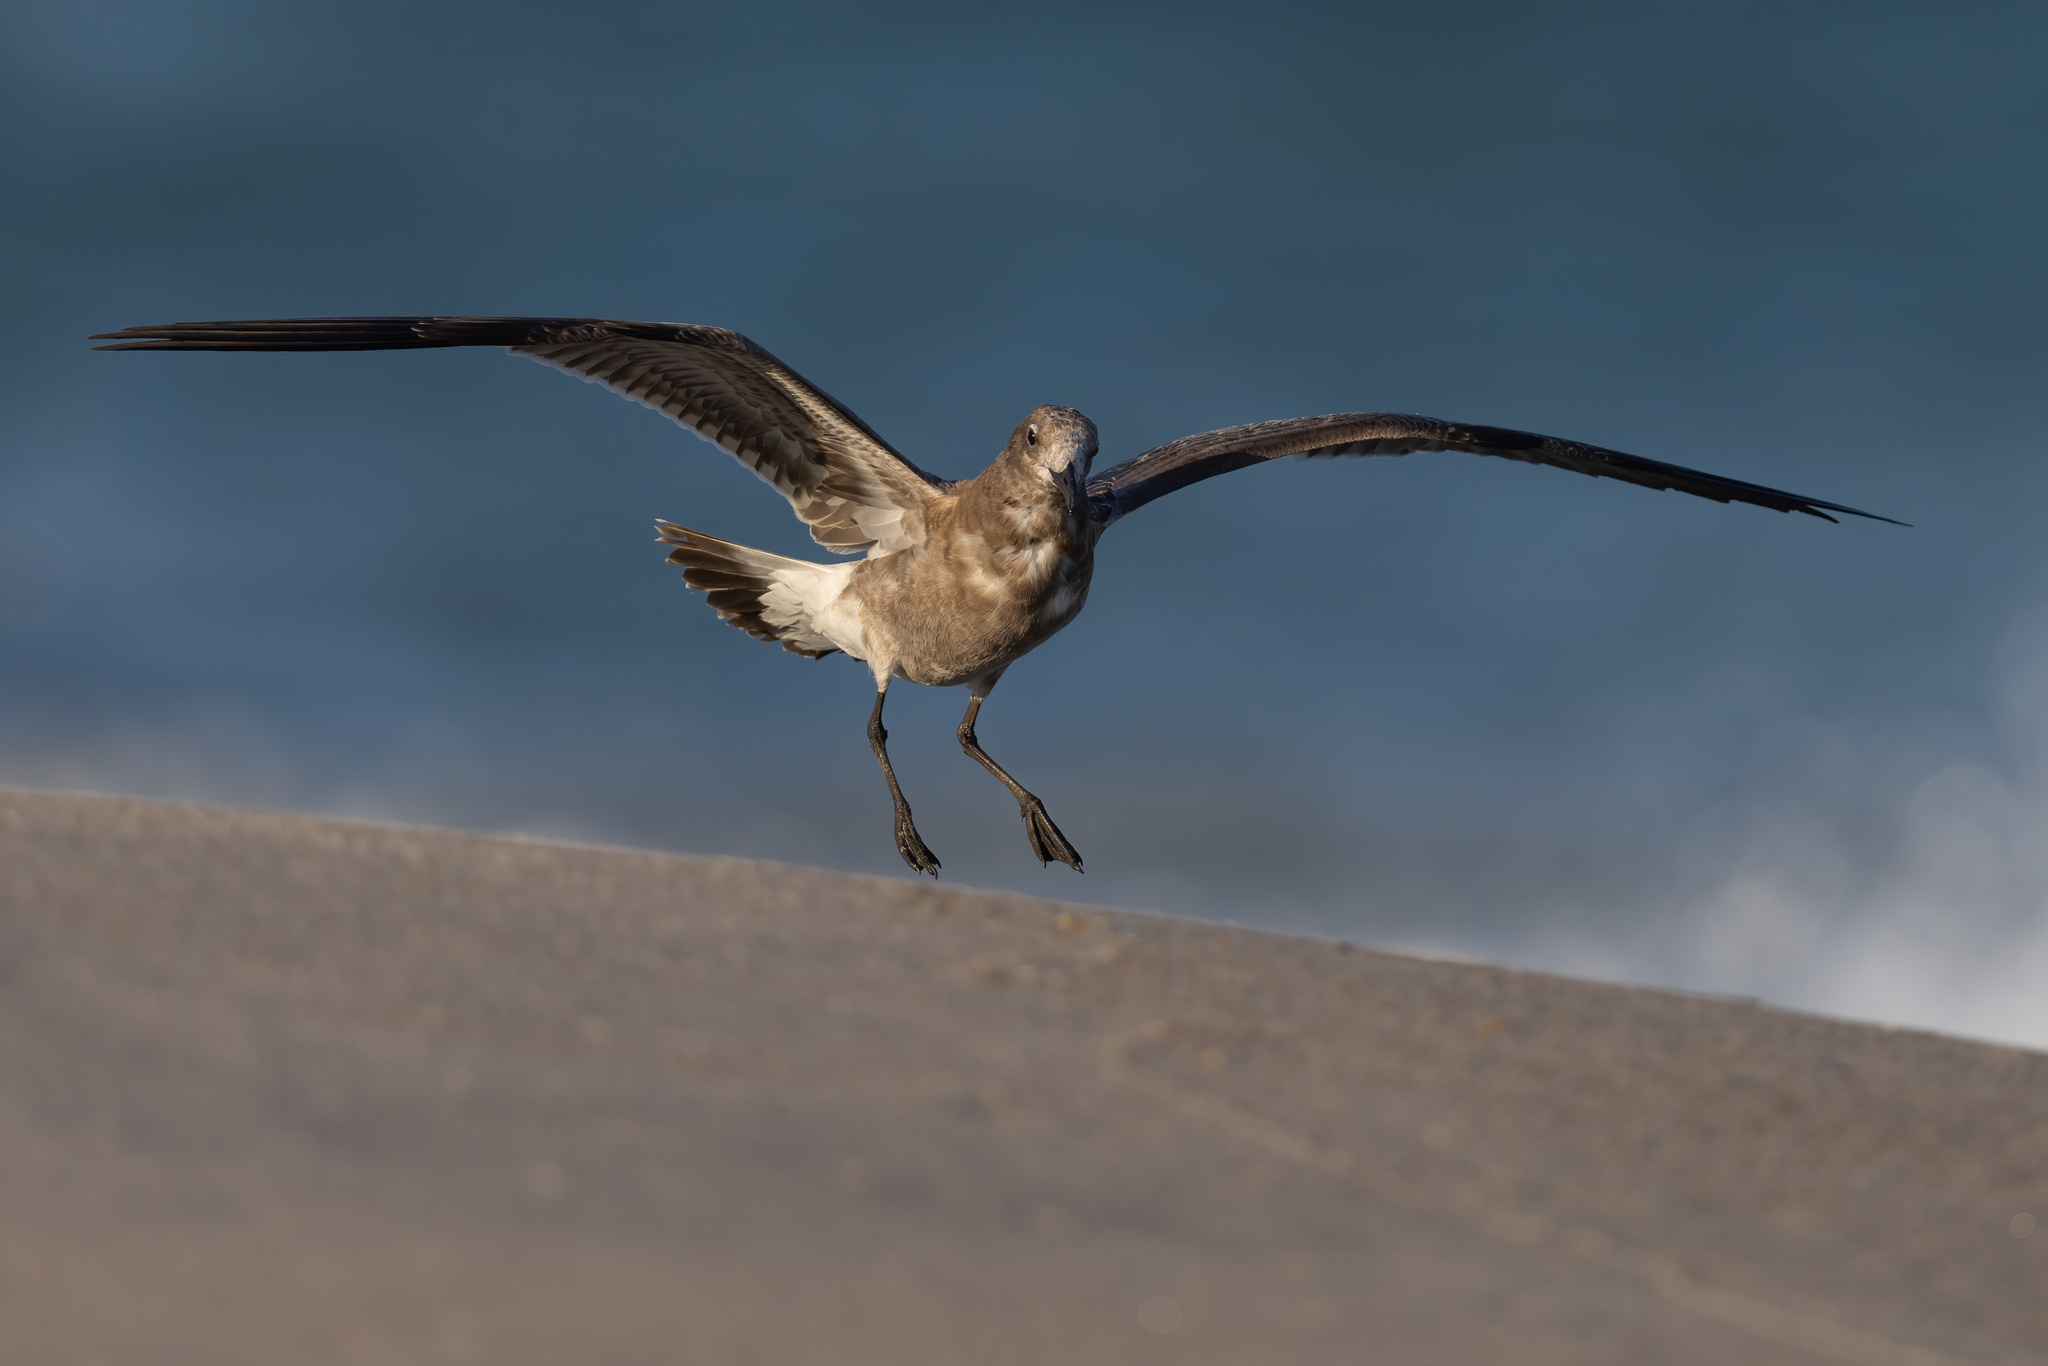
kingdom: Animalia
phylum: Chordata
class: Aves
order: Charadriiformes
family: Laridae
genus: Leucophaeus
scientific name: Leucophaeus atricilla
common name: Laughing gull
